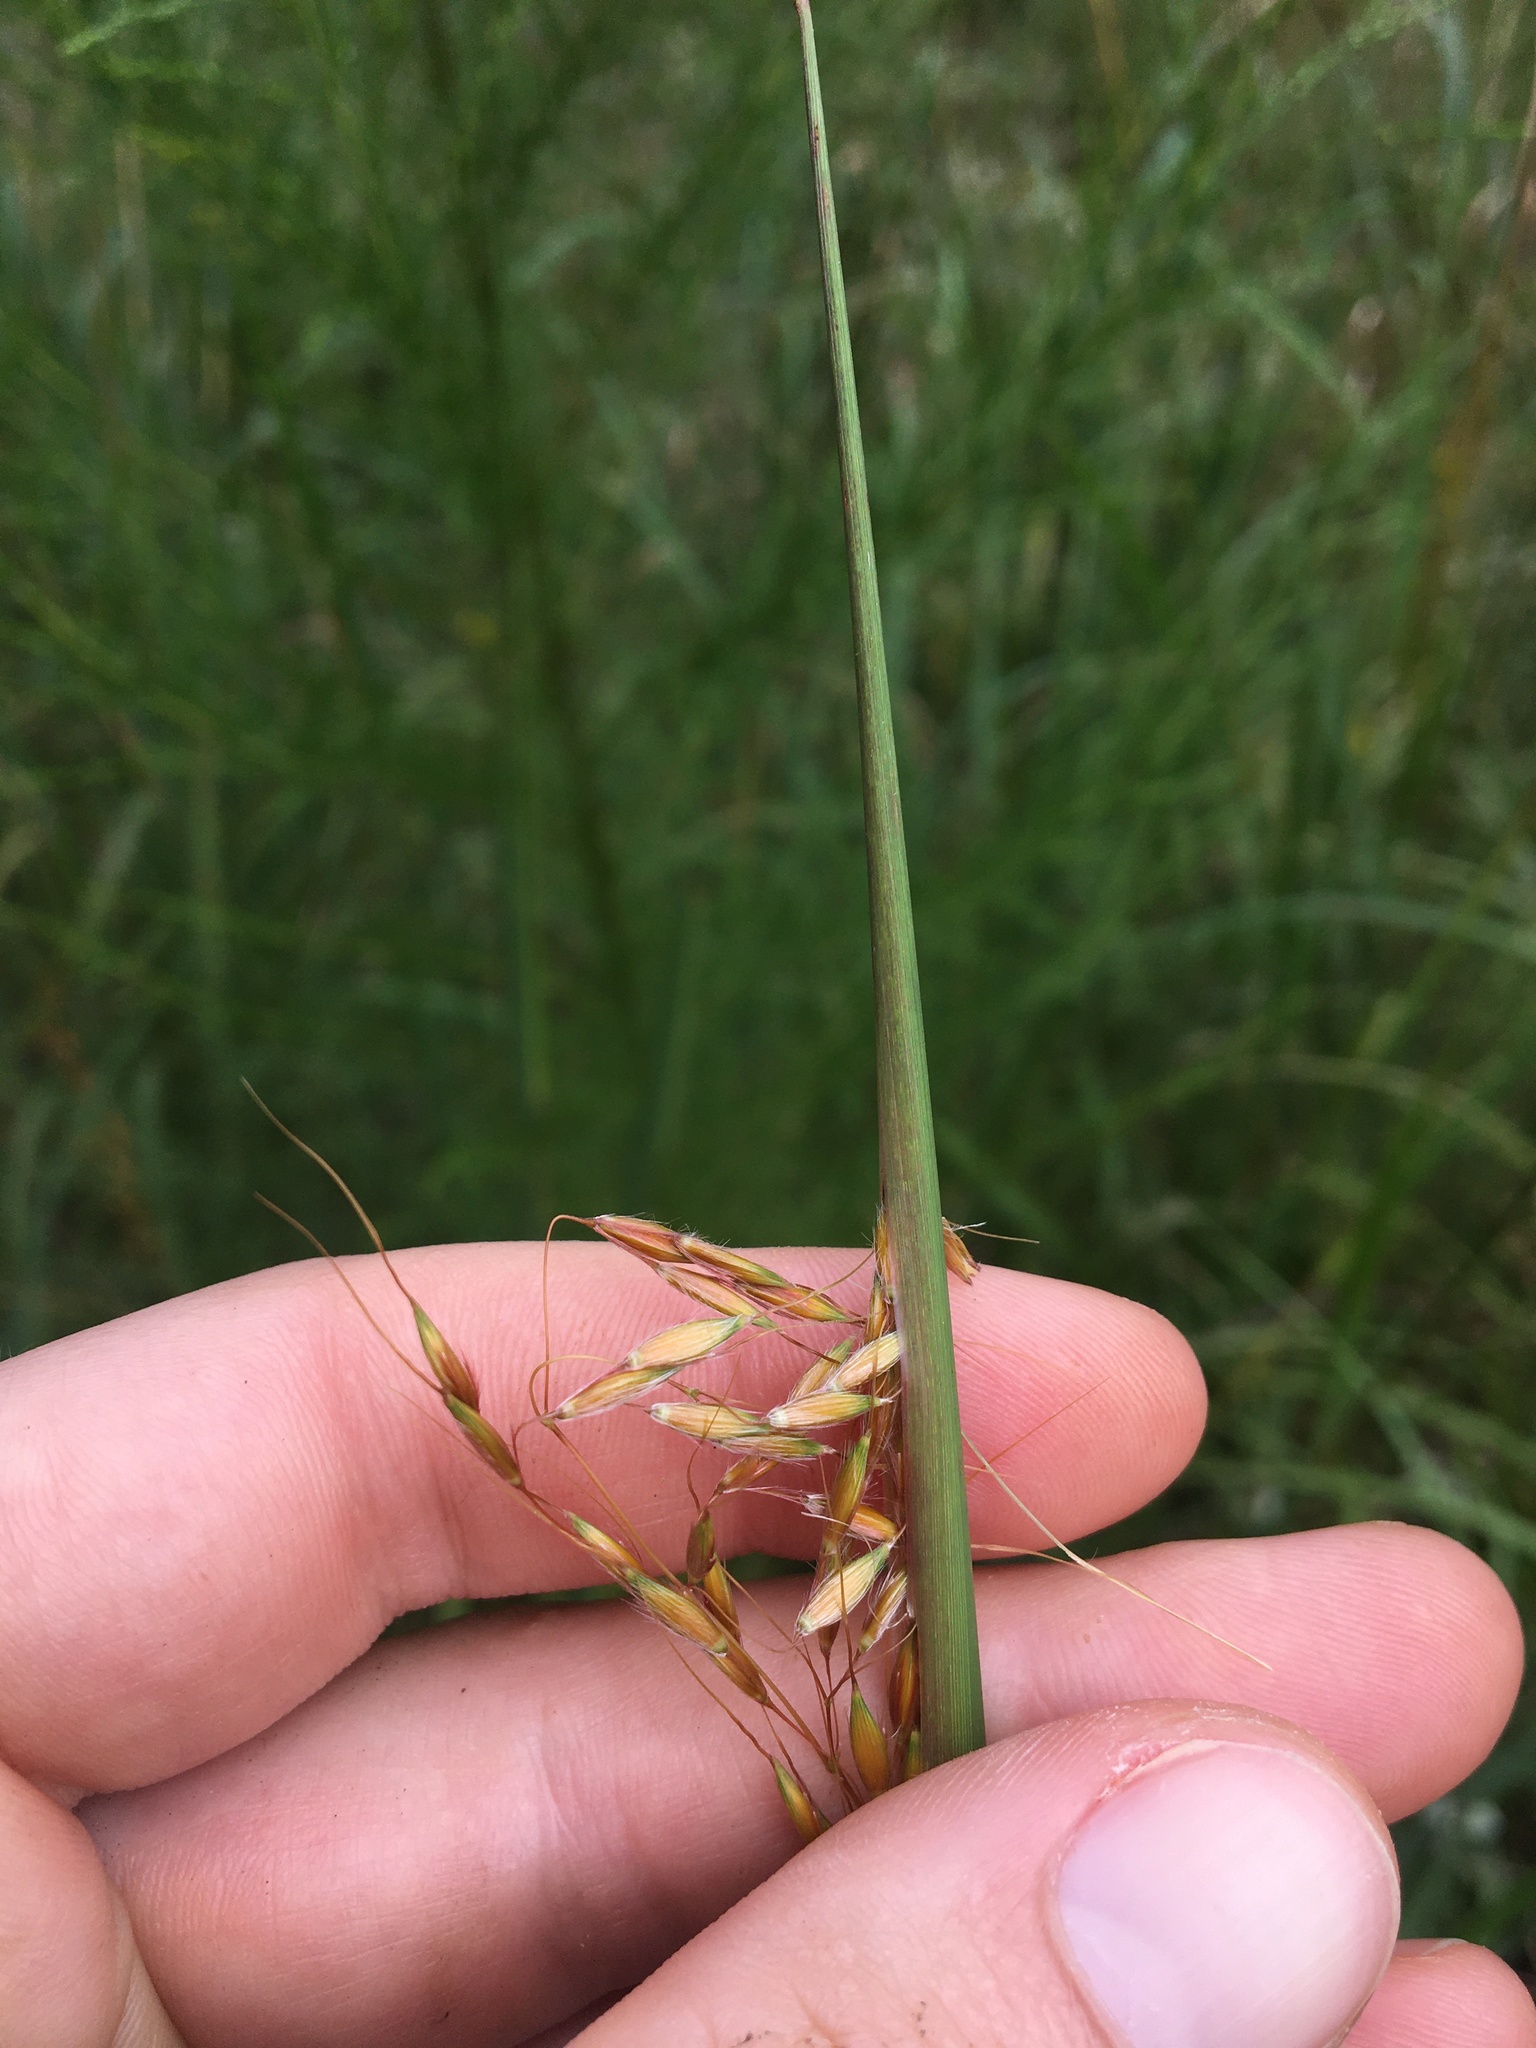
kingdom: Plantae
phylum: Tracheophyta
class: Liliopsida
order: Poales
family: Poaceae
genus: Sorghastrum
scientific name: Sorghastrum nutans
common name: Indian grass
